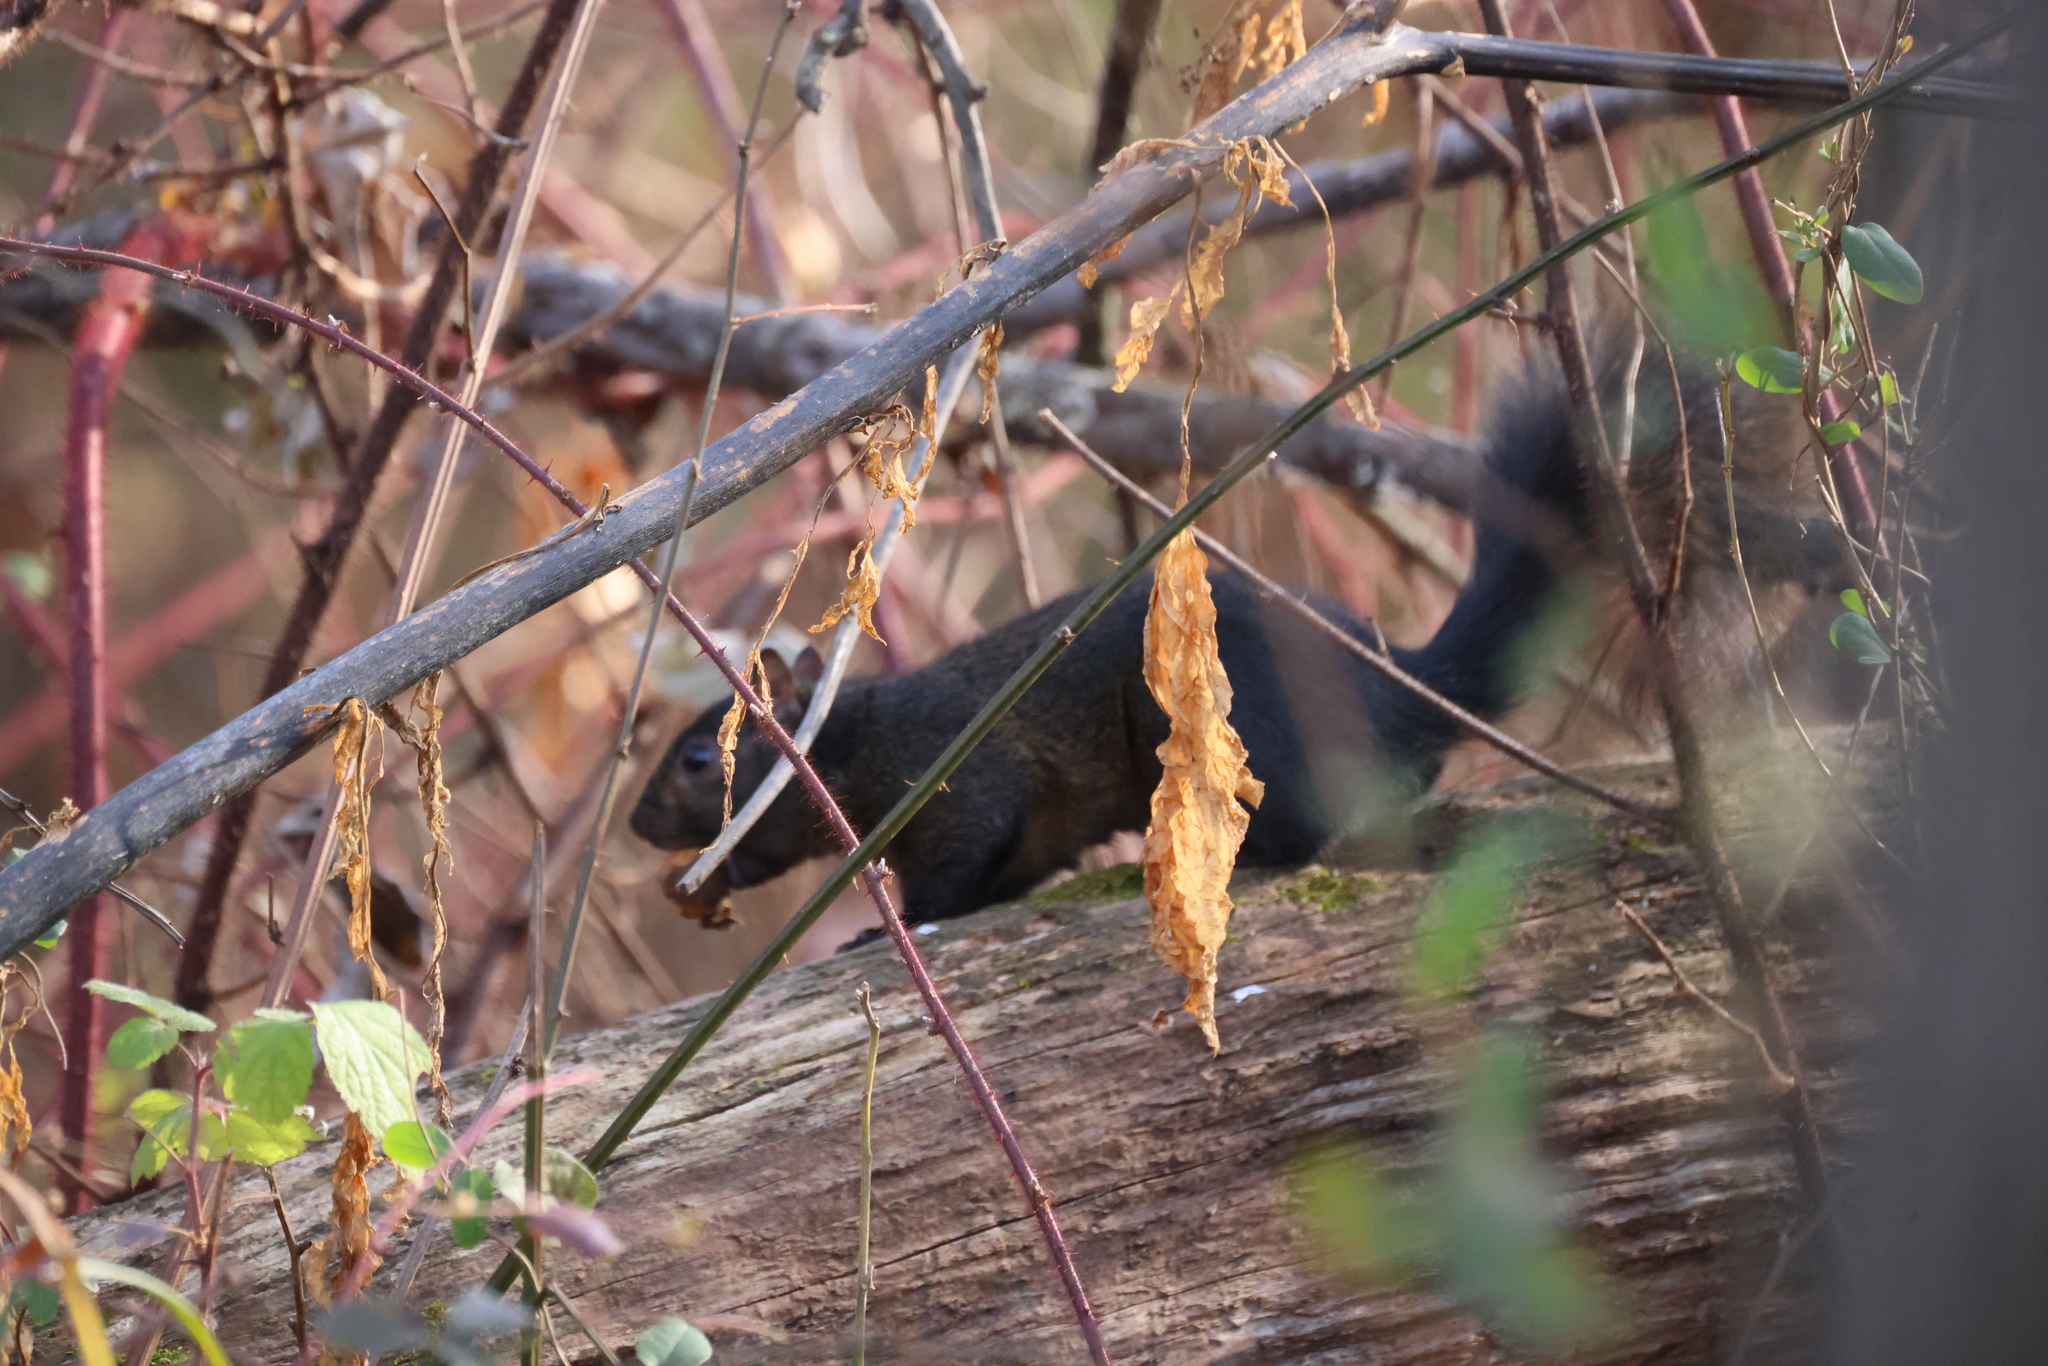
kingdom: Animalia
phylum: Chordata
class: Mammalia
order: Rodentia
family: Sciuridae
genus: Sciurus
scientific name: Sciurus carolinensis
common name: Eastern gray squirrel
